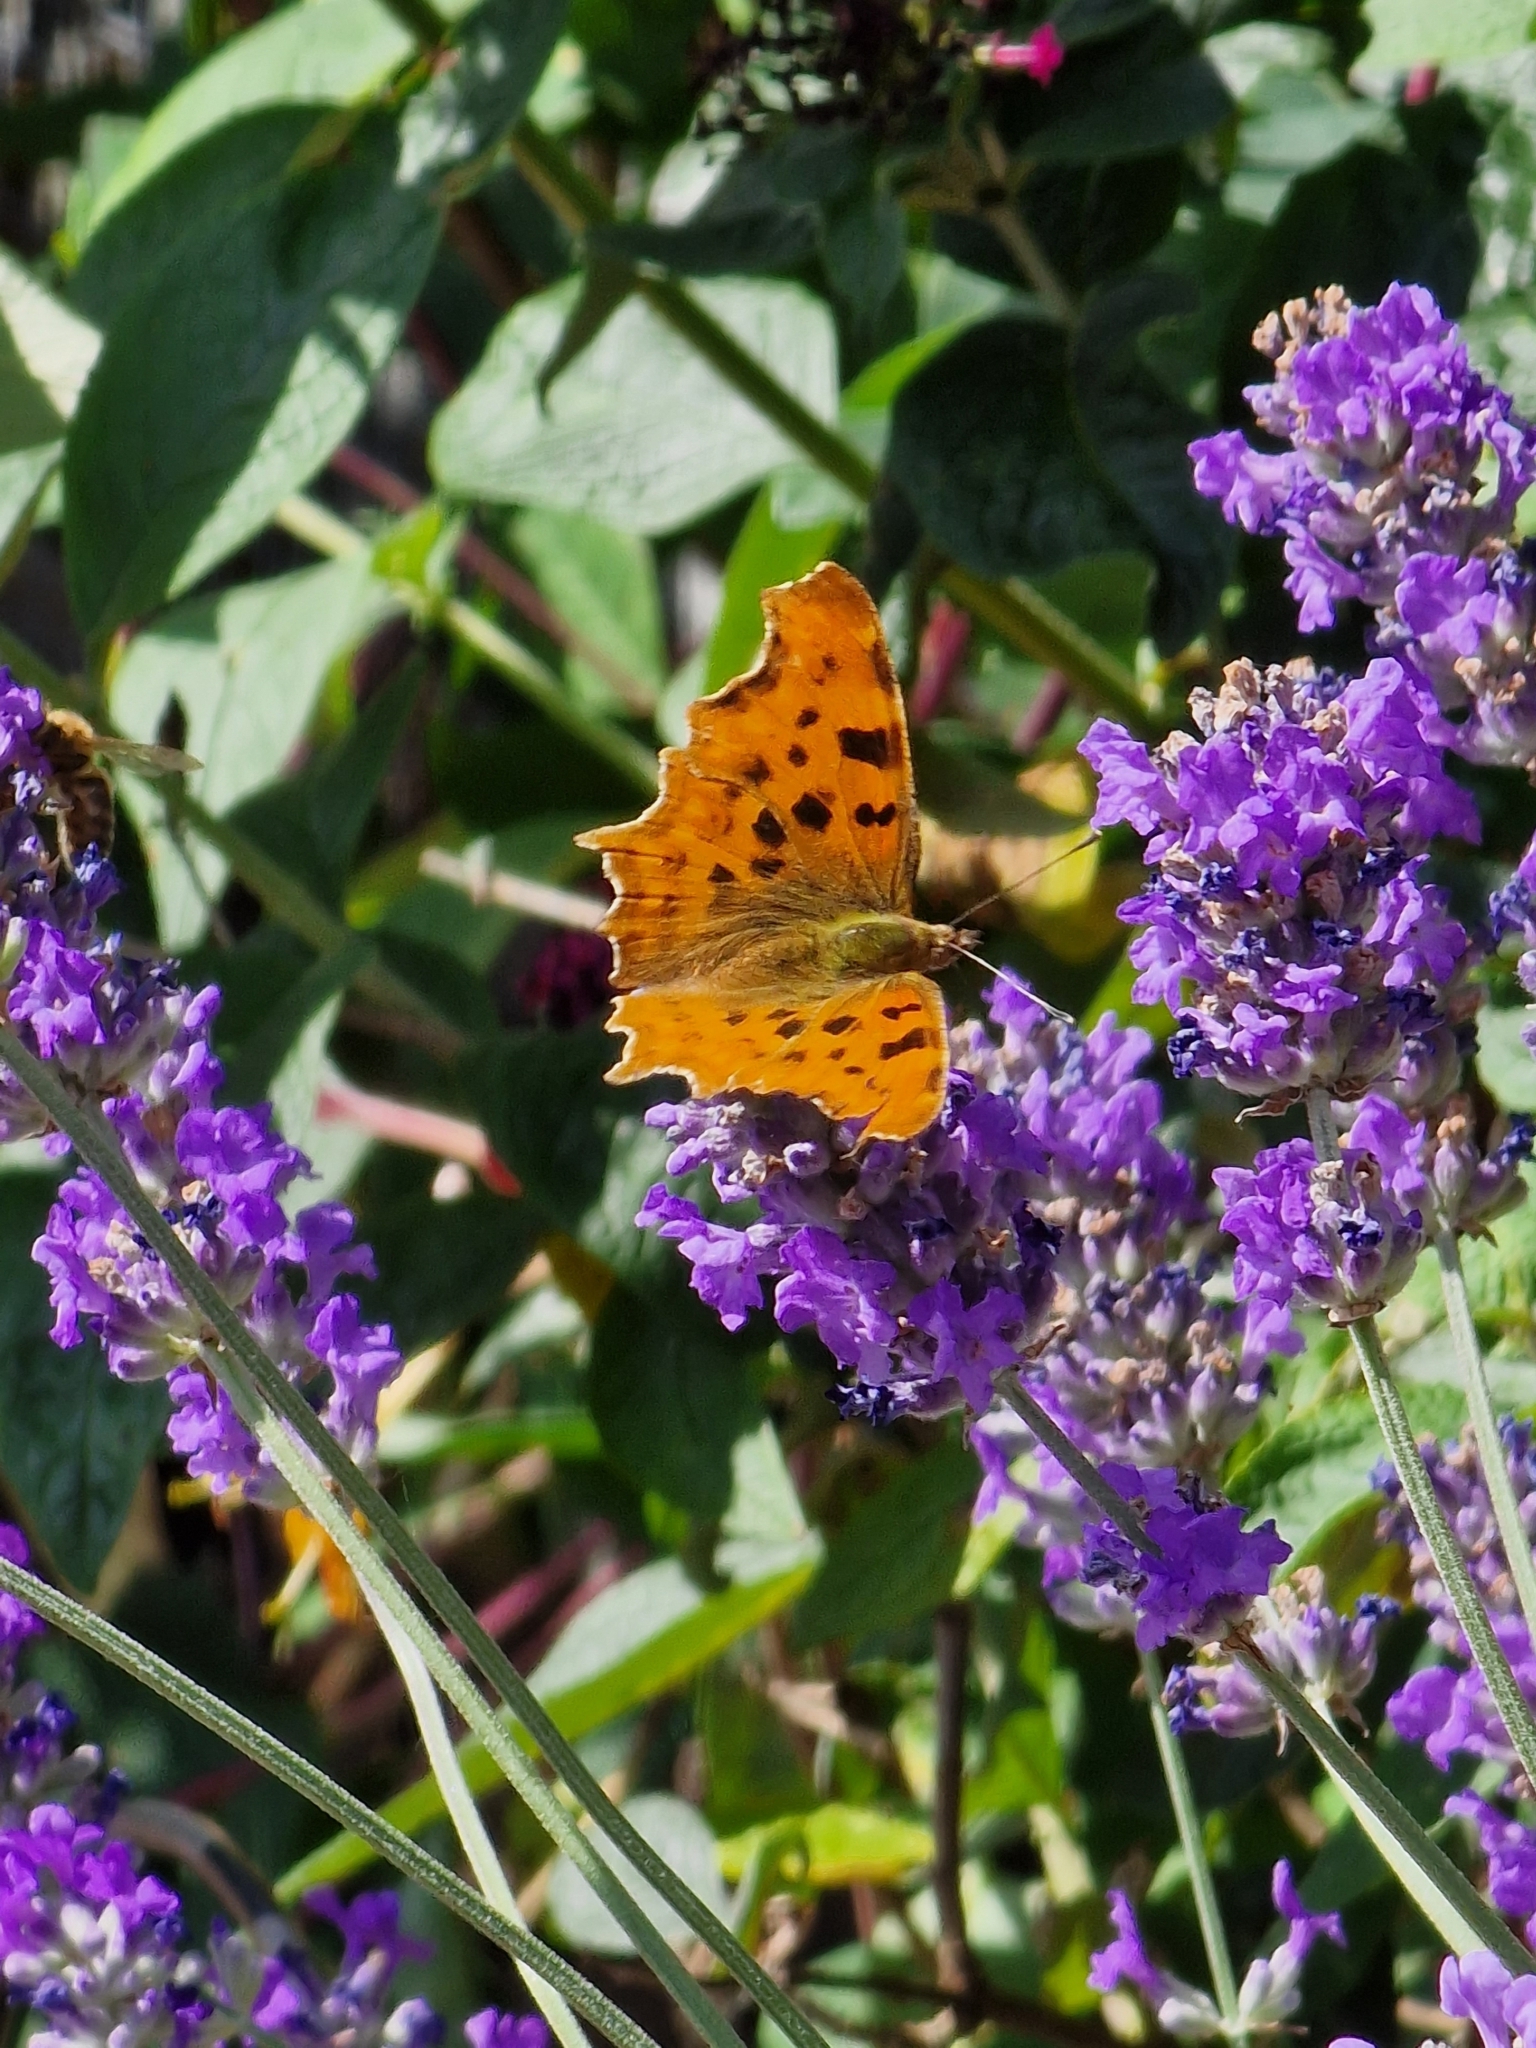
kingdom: Animalia
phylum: Arthropoda
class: Insecta
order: Lepidoptera
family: Nymphalidae
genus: Polygonia
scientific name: Polygonia c-album
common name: Comma
